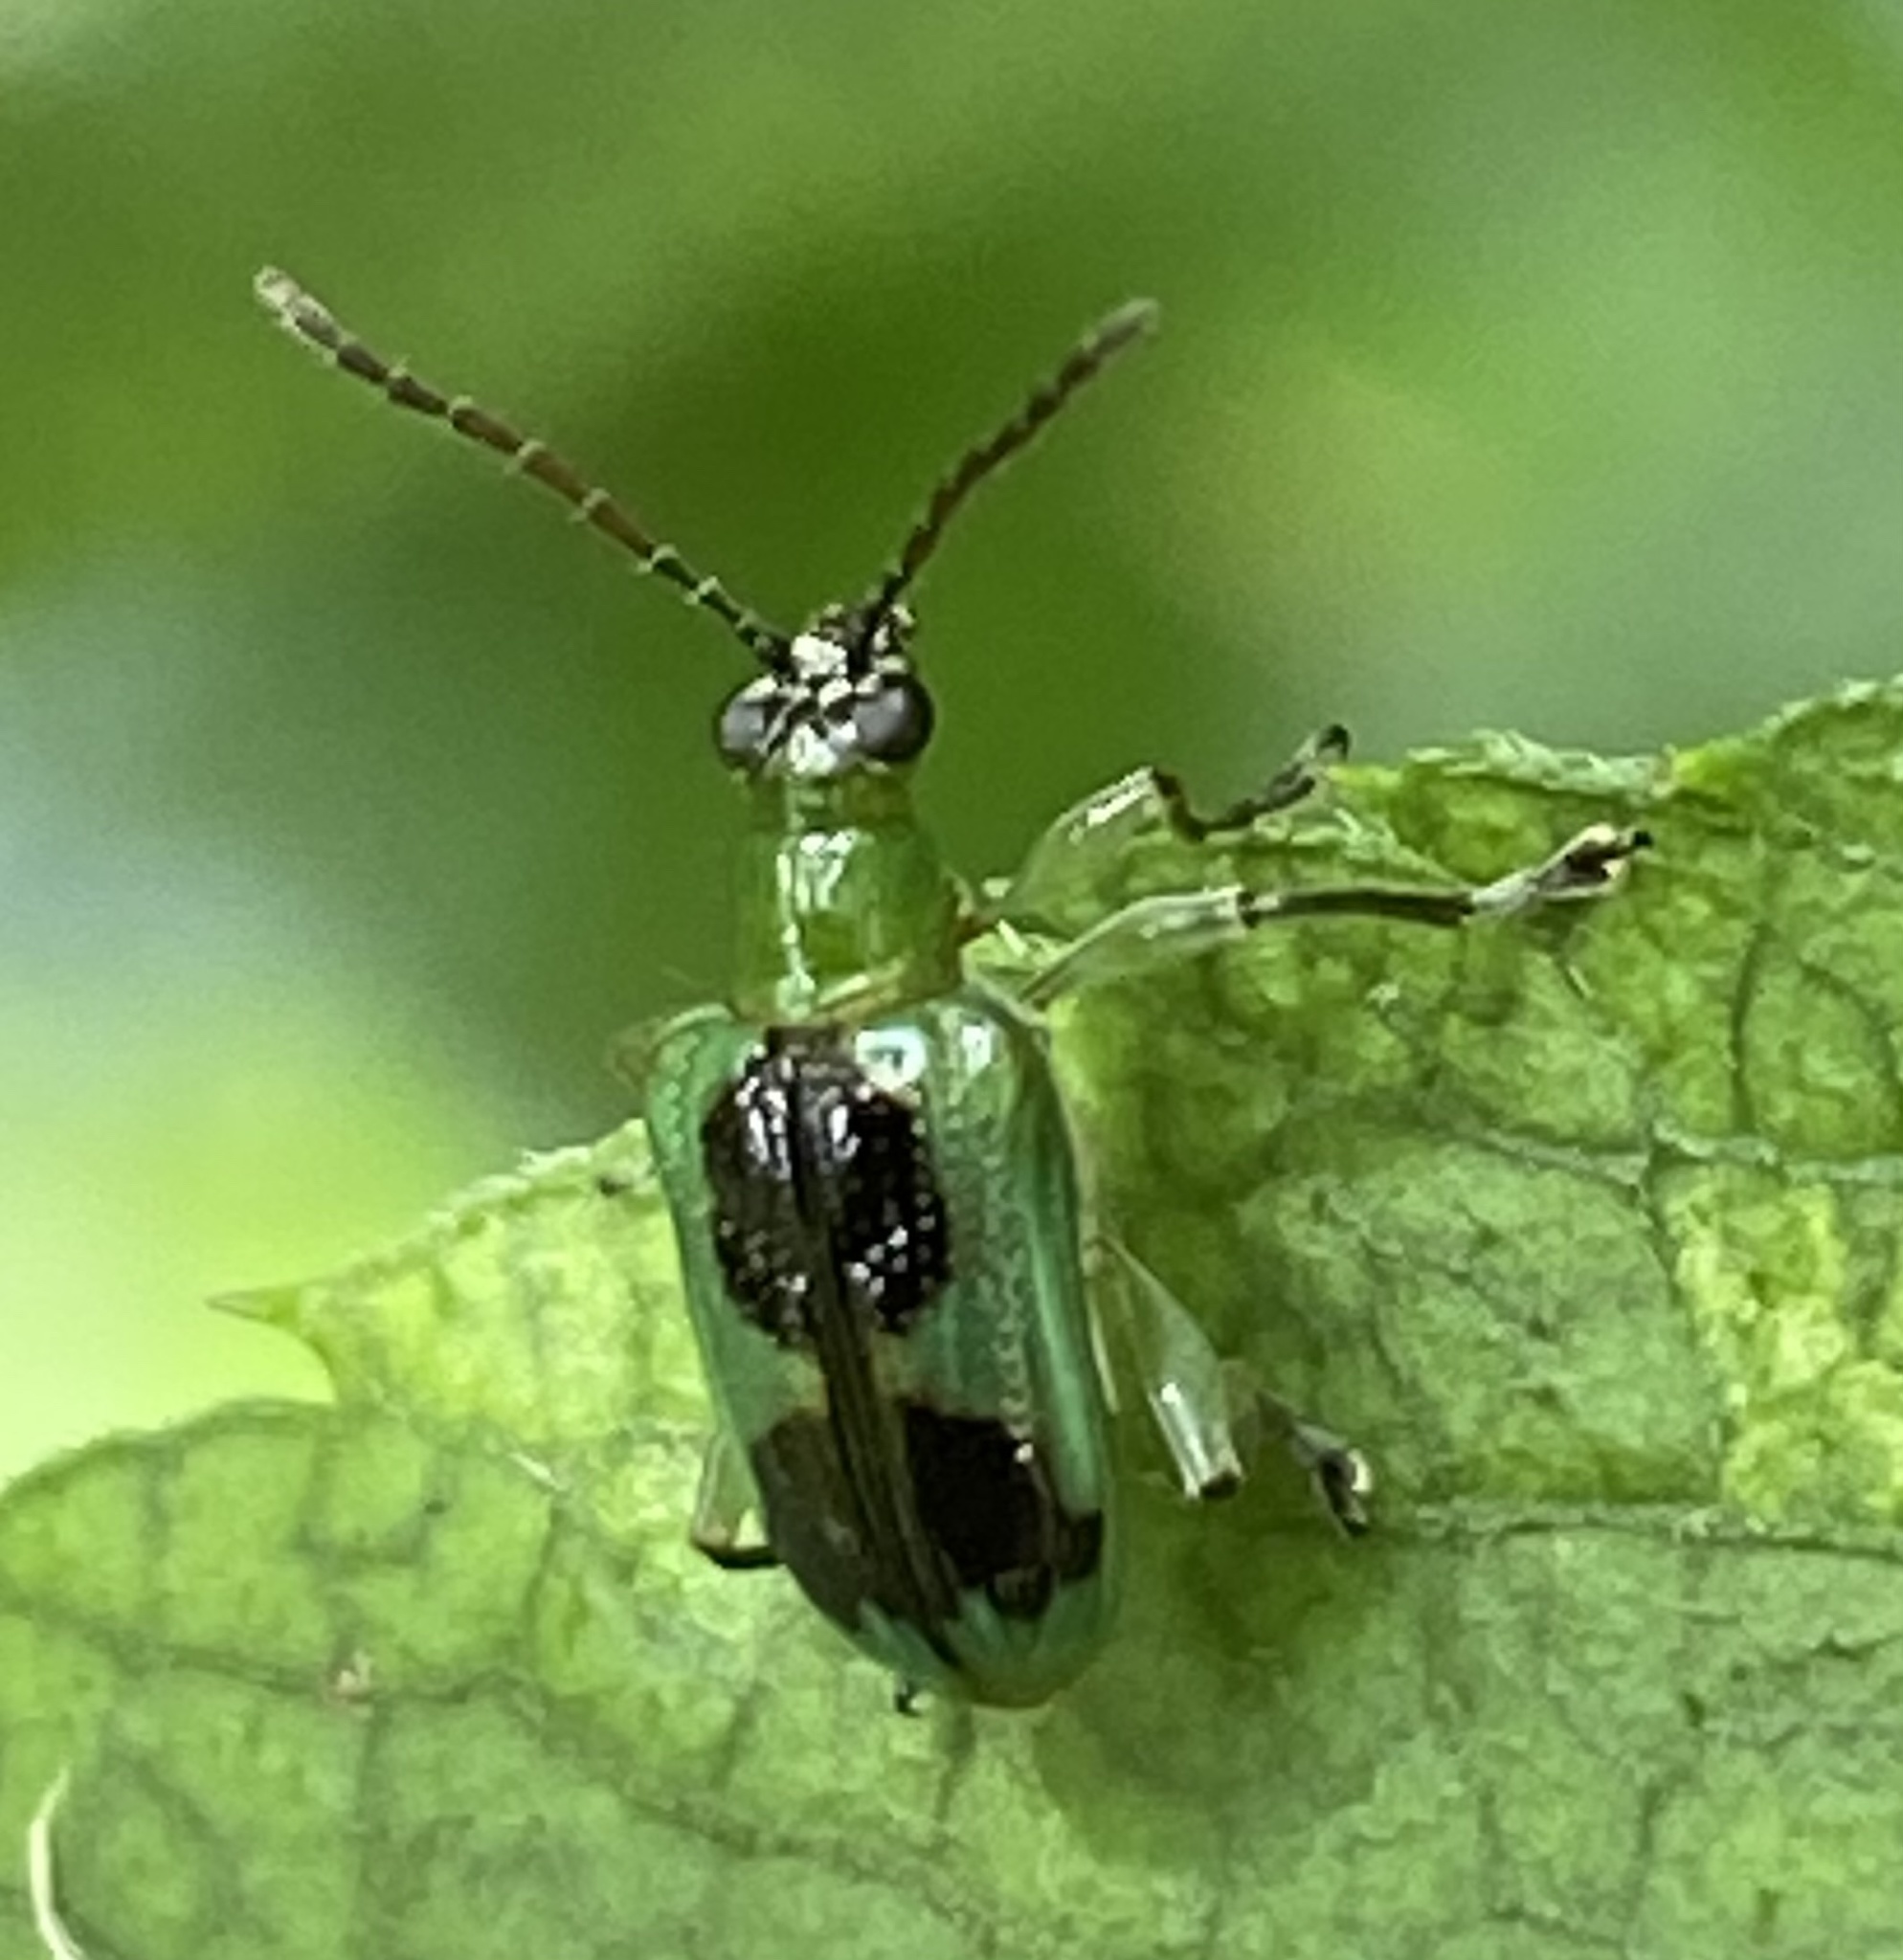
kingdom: Animalia
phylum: Arthropoda
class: Insecta
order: Coleoptera
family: Chrysomelidae
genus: Neolema
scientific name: Neolema
